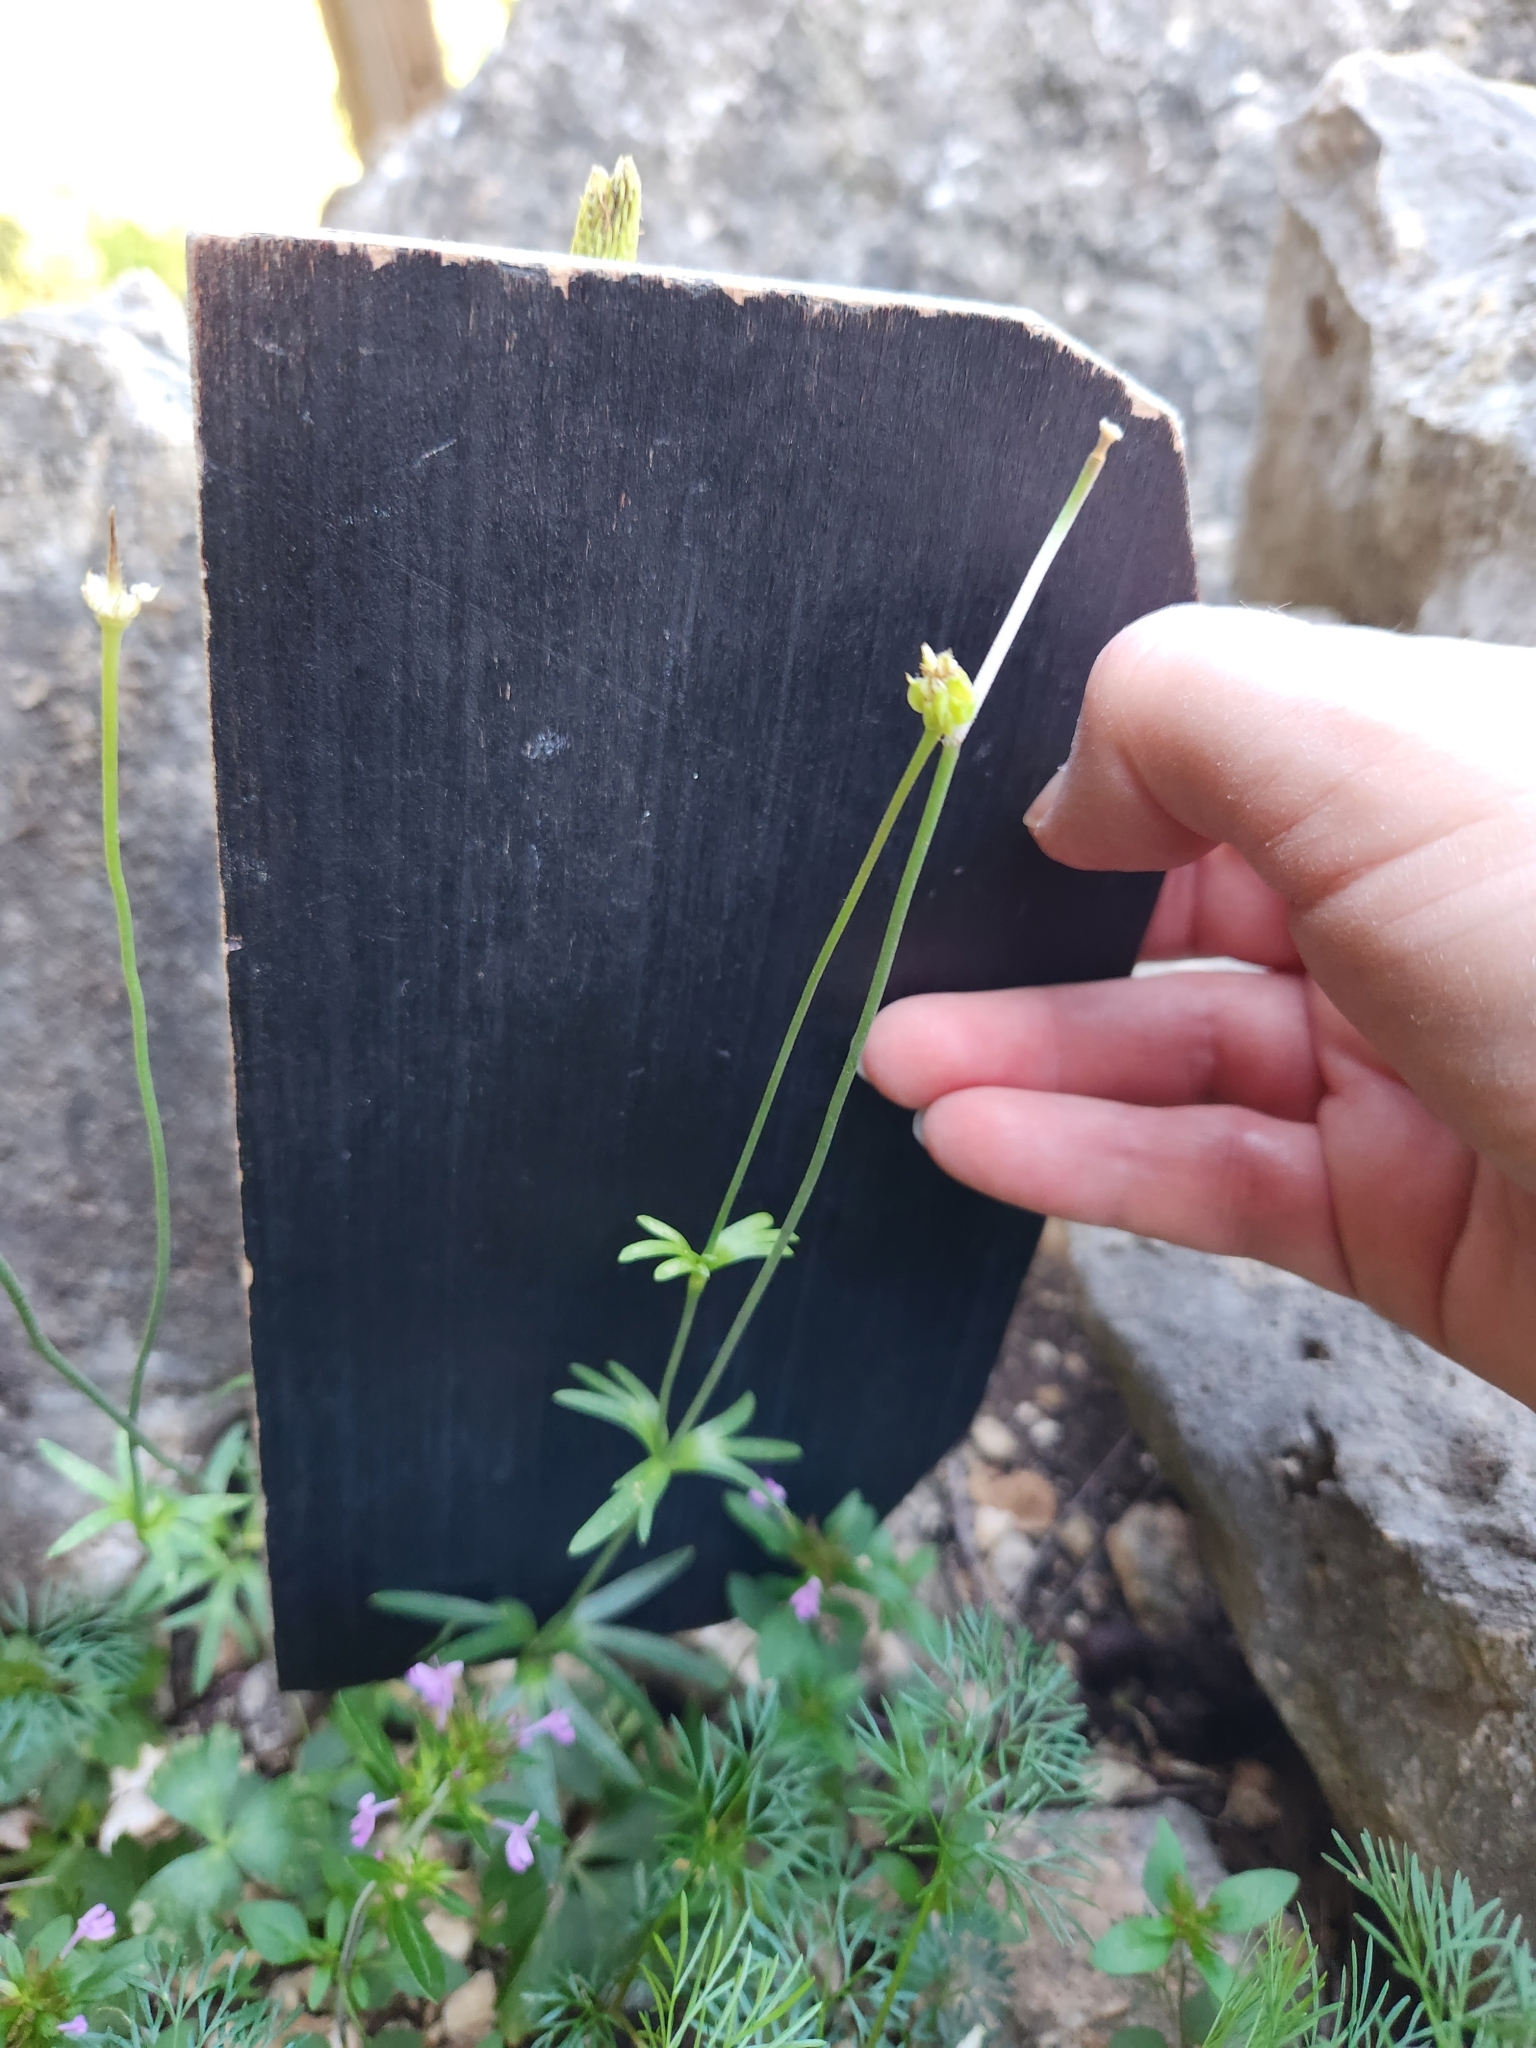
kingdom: Plantae
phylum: Tracheophyta
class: Magnoliopsida
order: Ranunculales
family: Ranunculaceae
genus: Anemone
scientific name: Anemone edwardsiana
